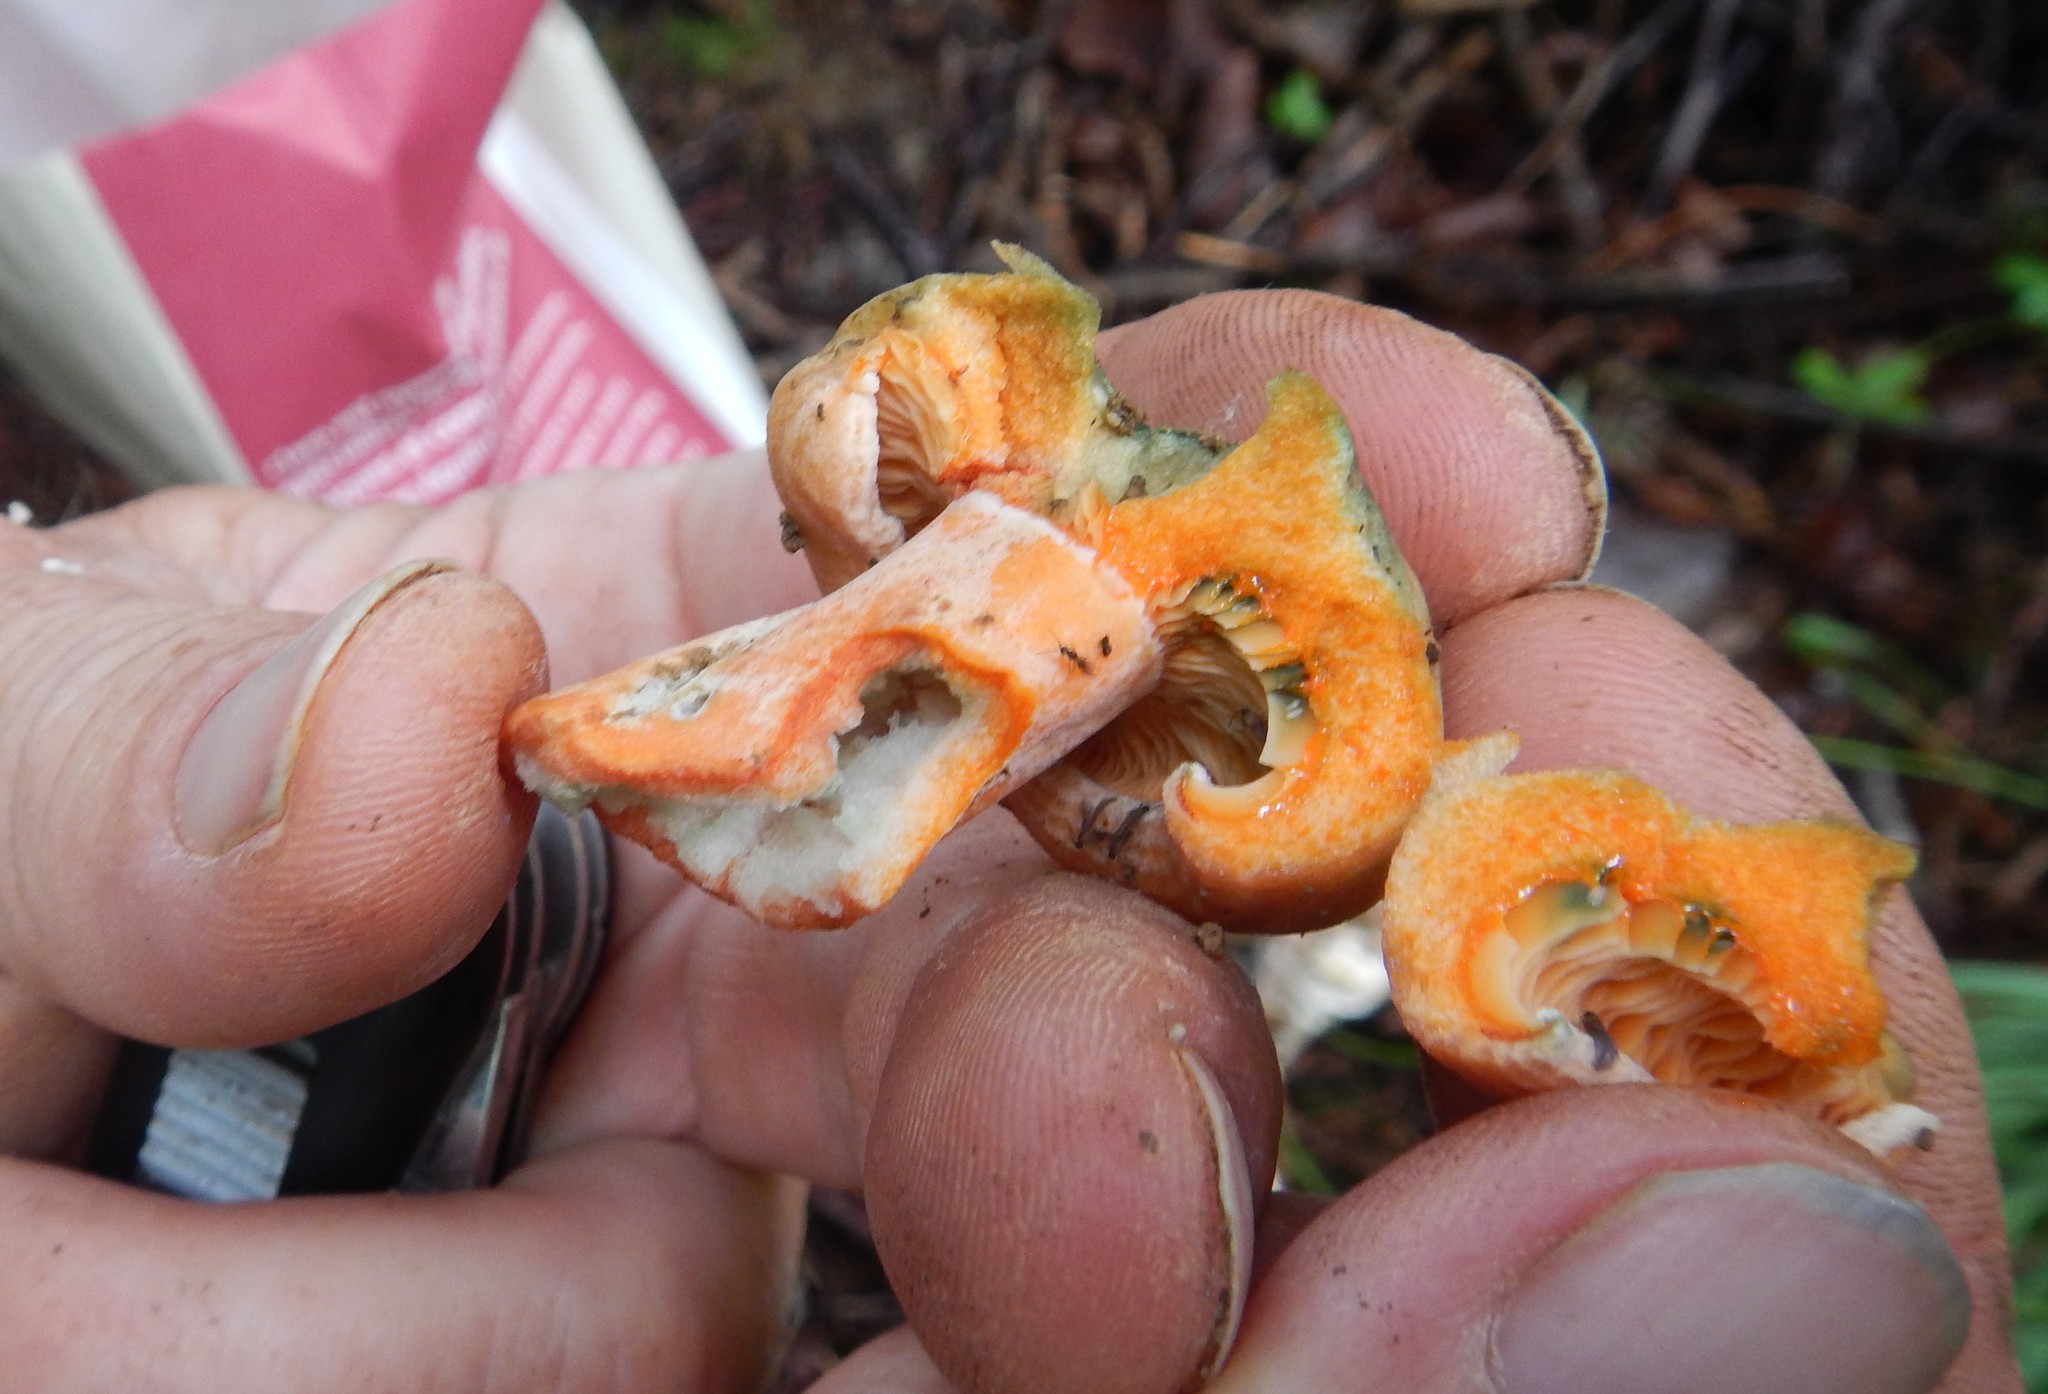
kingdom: Fungi
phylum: Basidiomycota
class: Agaricomycetes
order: Russulales
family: Russulaceae
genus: Lactarius
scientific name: Lactarius deliciosus
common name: Saffron milk-cap
